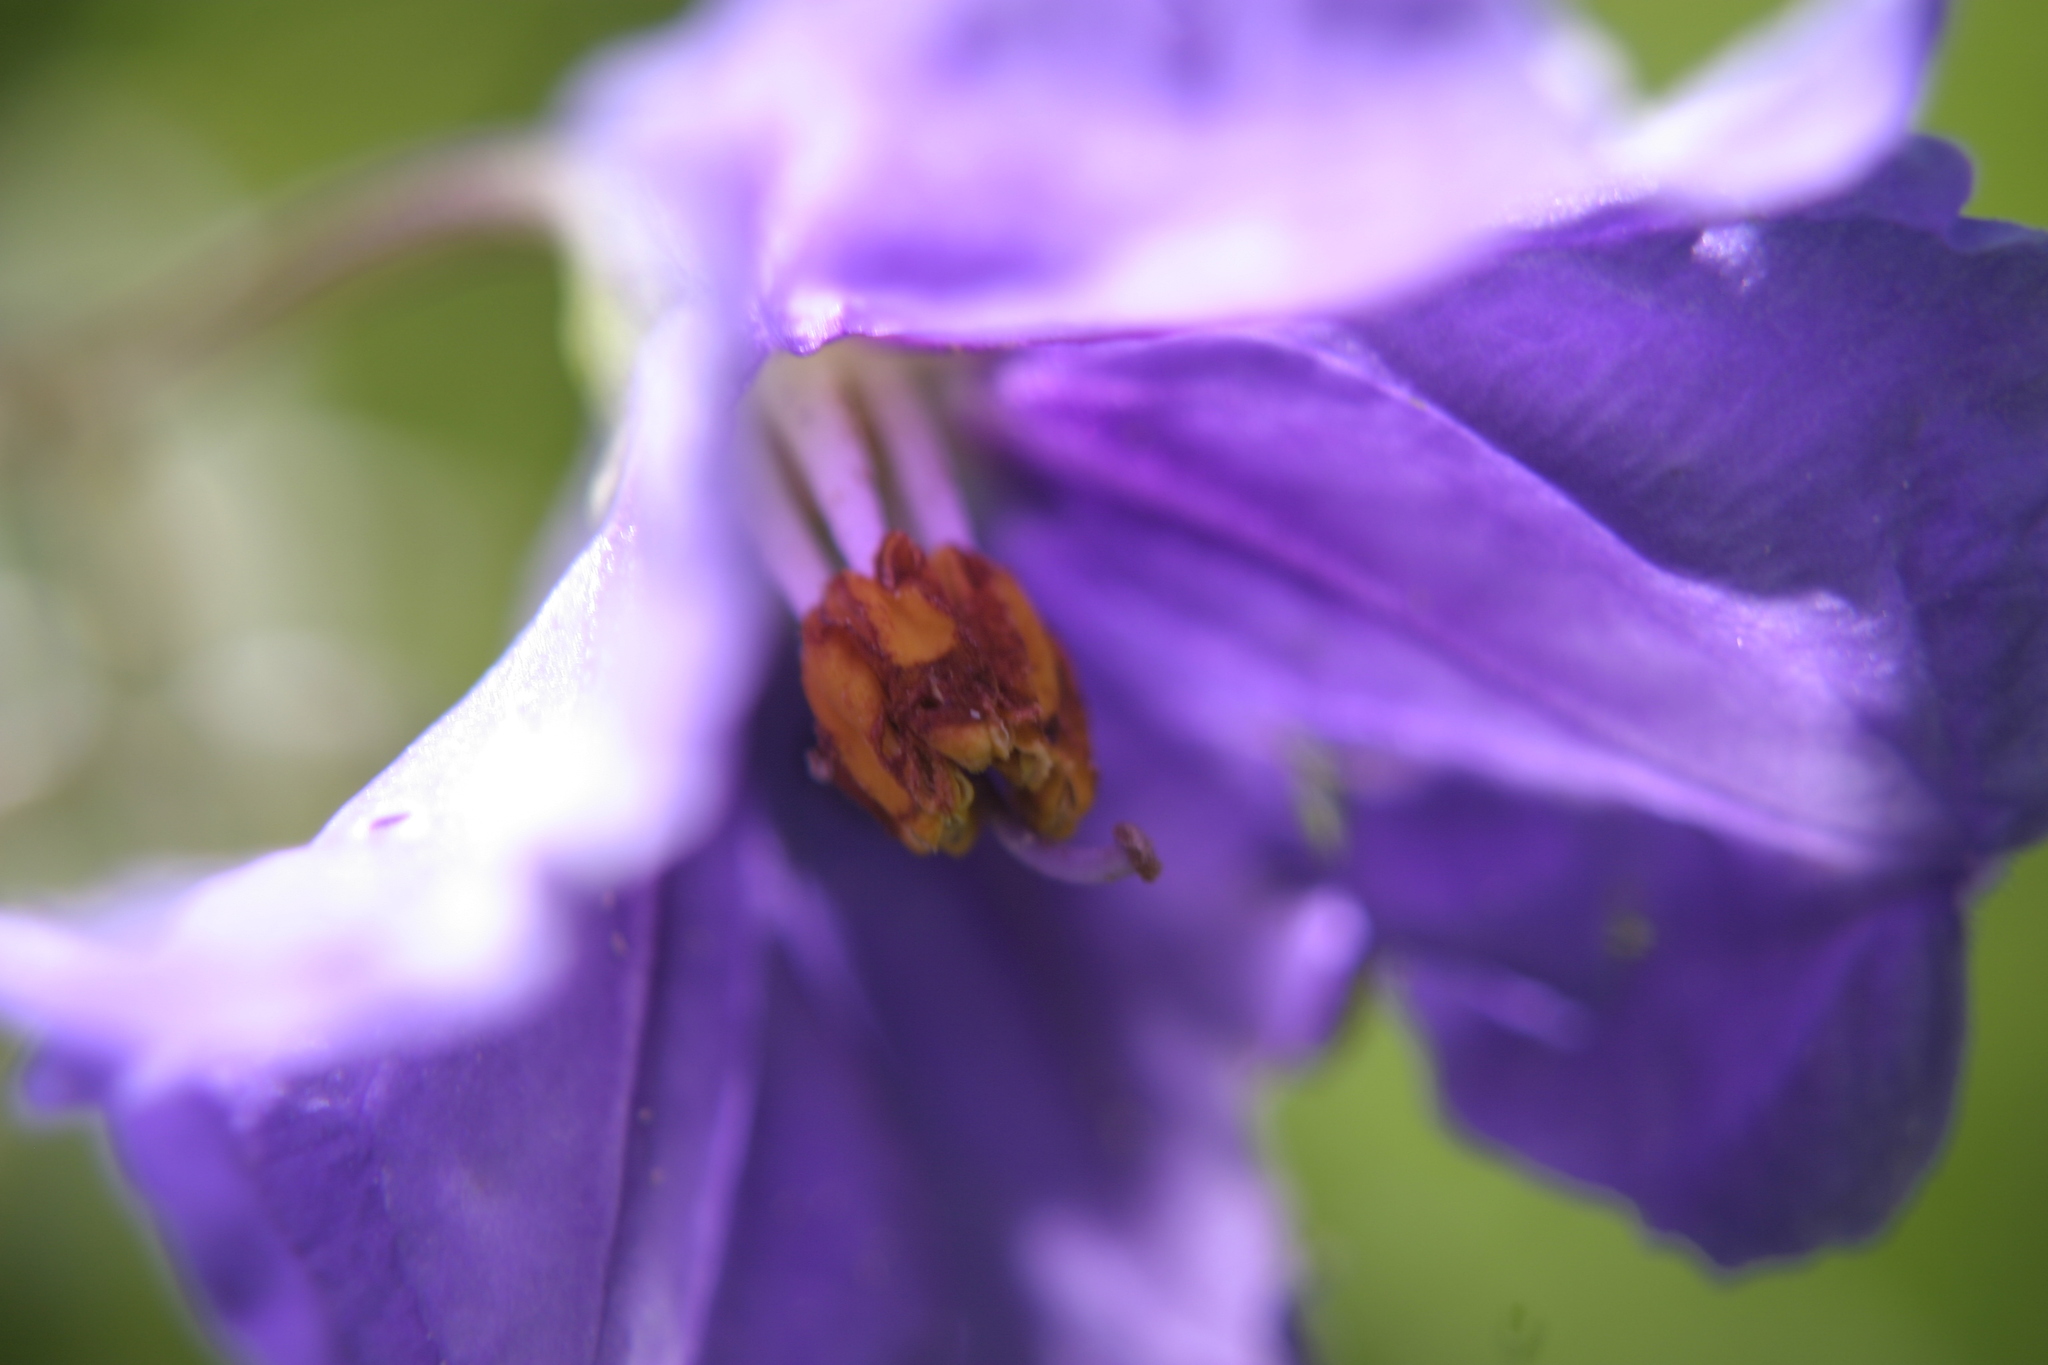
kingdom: Plantae
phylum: Tracheophyta
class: Magnoliopsida
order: Solanales
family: Solanaceae
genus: Solanum
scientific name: Solanum laciniatum
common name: Kangaroo-apple
